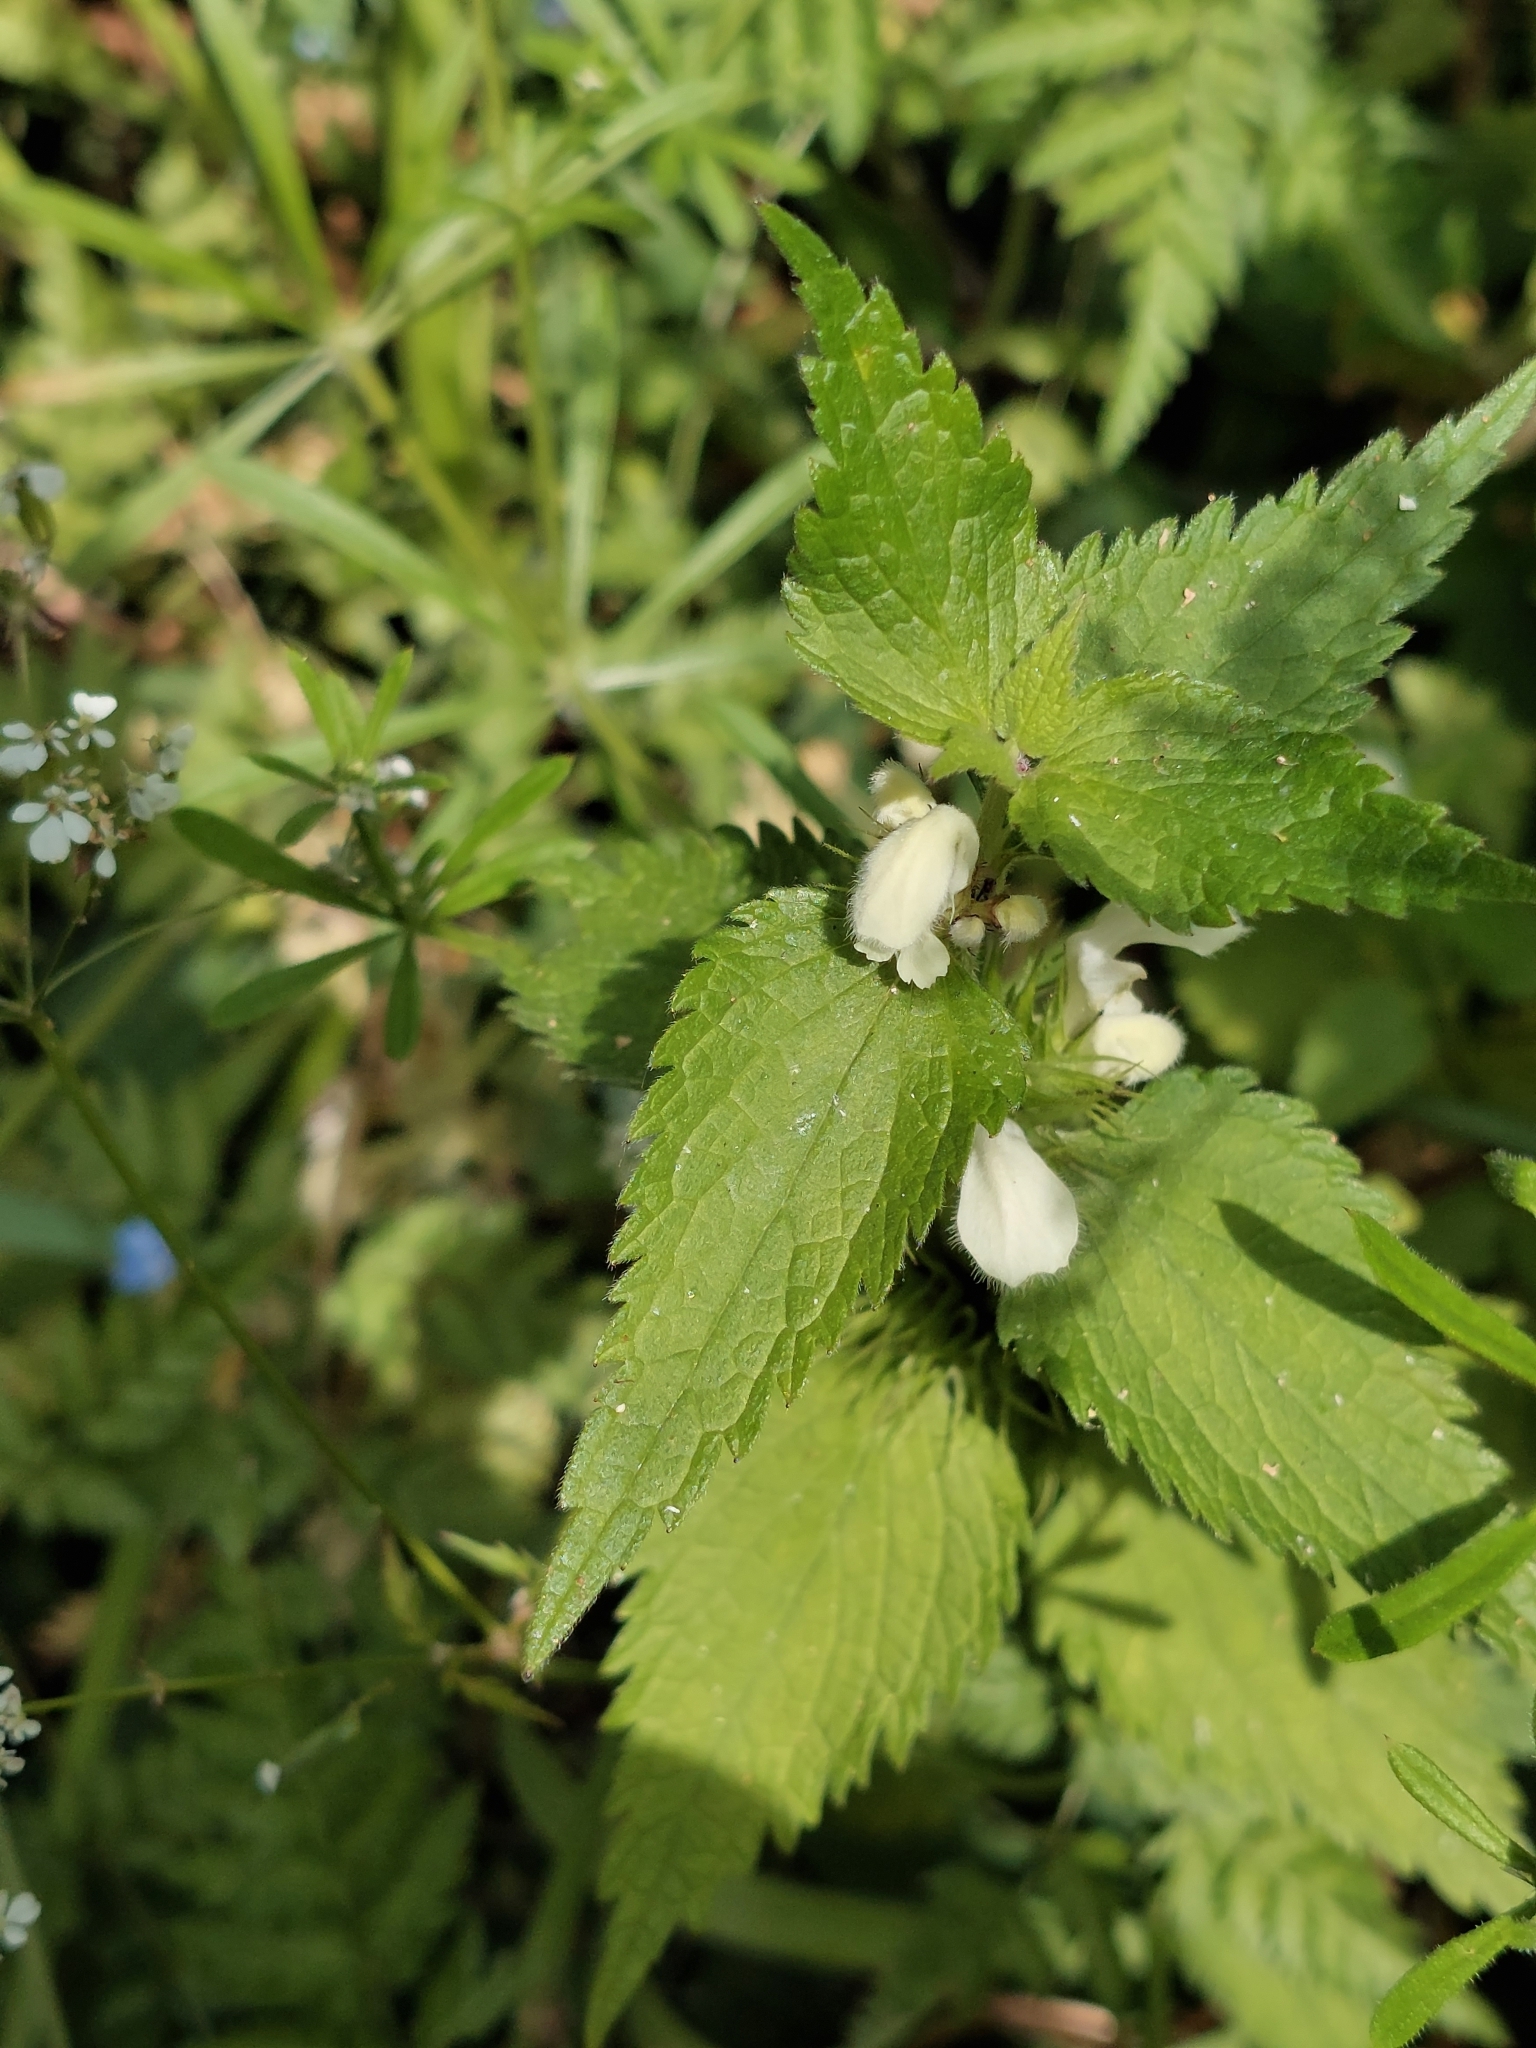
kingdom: Plantae
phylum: Tracheophyta
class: Magnoliopsida
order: Lamiales
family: Lamiaceae
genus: Lamium
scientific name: Lamium album
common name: White dead-nettle
